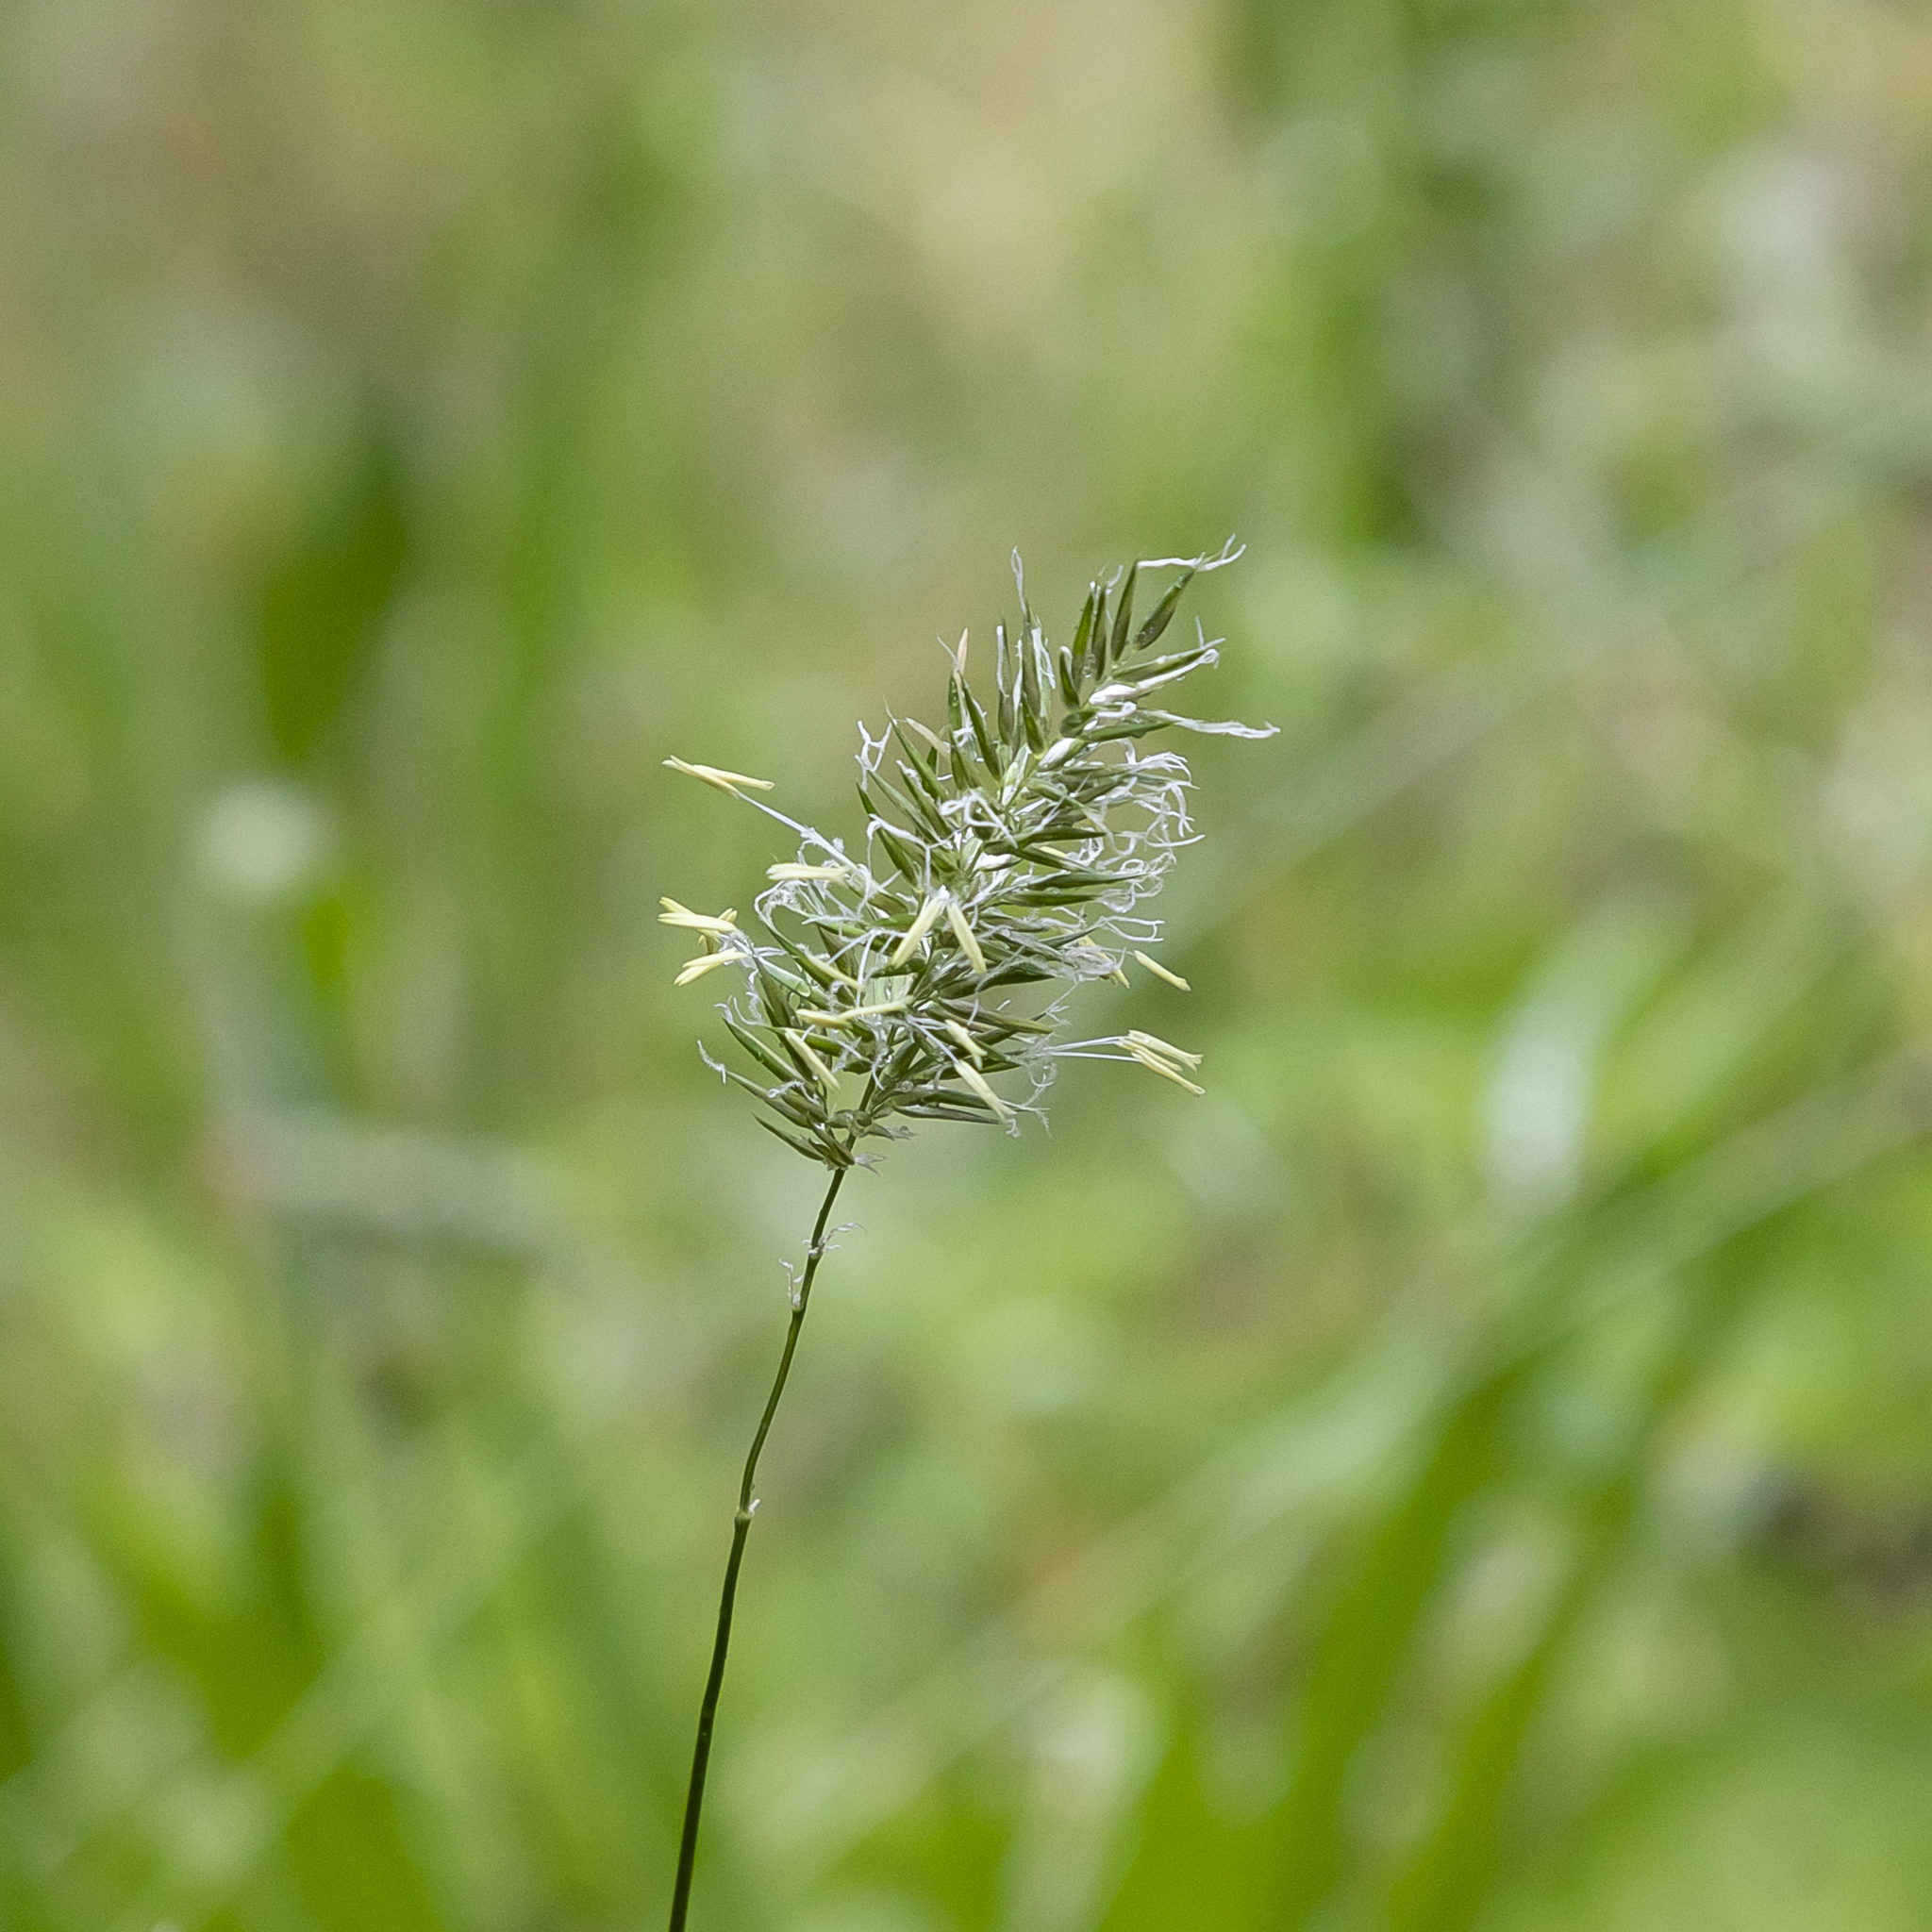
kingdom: Plantae
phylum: Tracheophyta
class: Liliopsida
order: Poales
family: Poaceae
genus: Anthoxanthum
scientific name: Anthoxanthum odoratum
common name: Sweet vernalgrass
